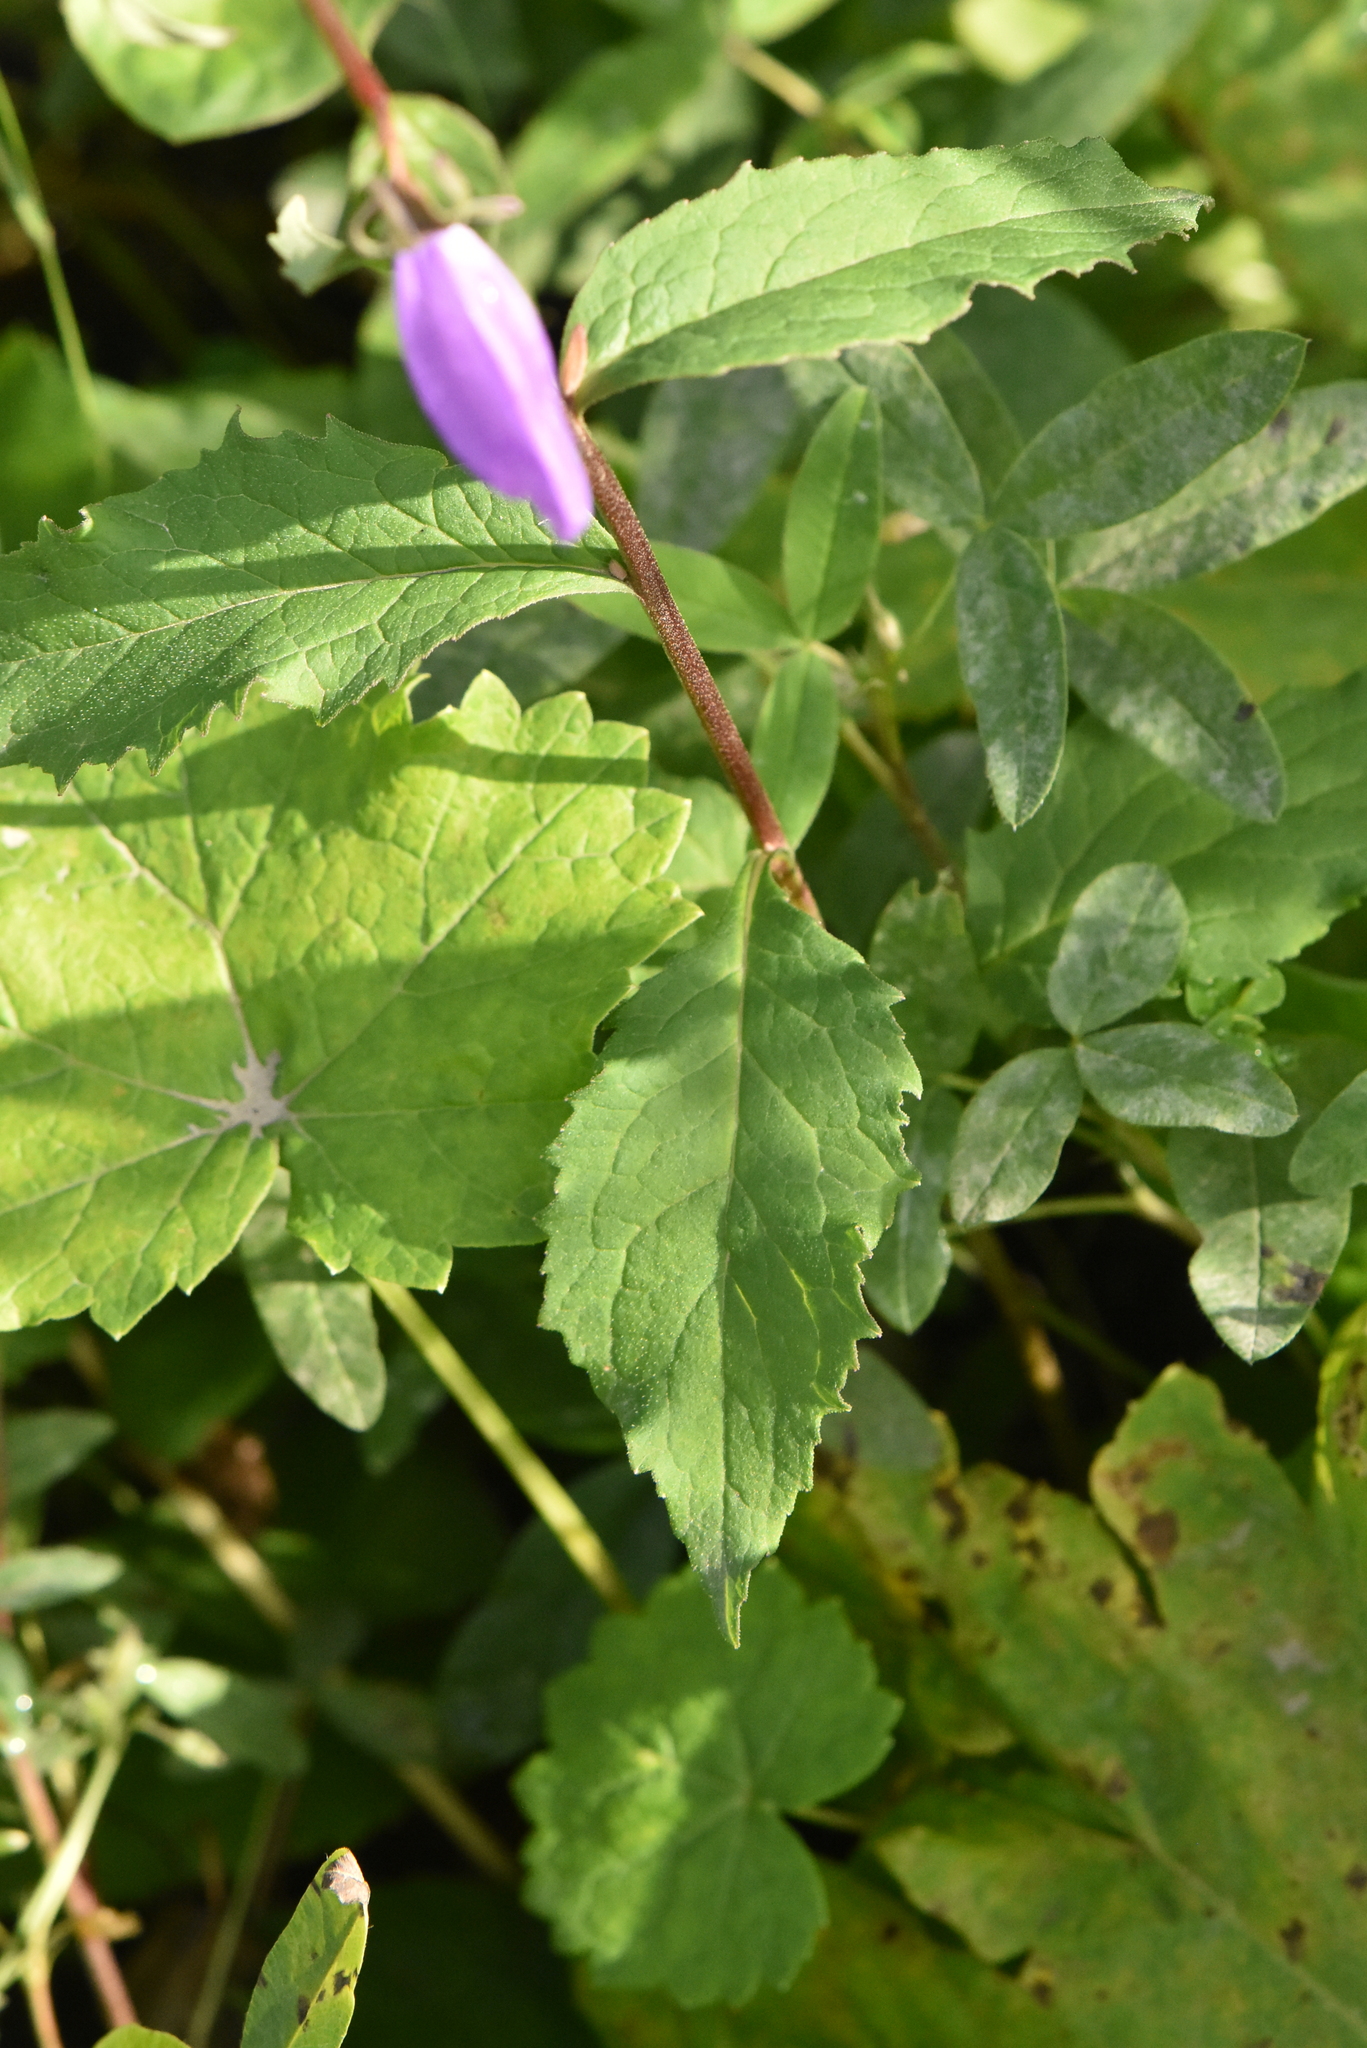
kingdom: Plantae
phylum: Tracheophyta
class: Magnoliopsida
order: Asterales
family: Campanulaceae
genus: Campanula
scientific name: Campanula rapunculoides
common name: Creeping bellflower
